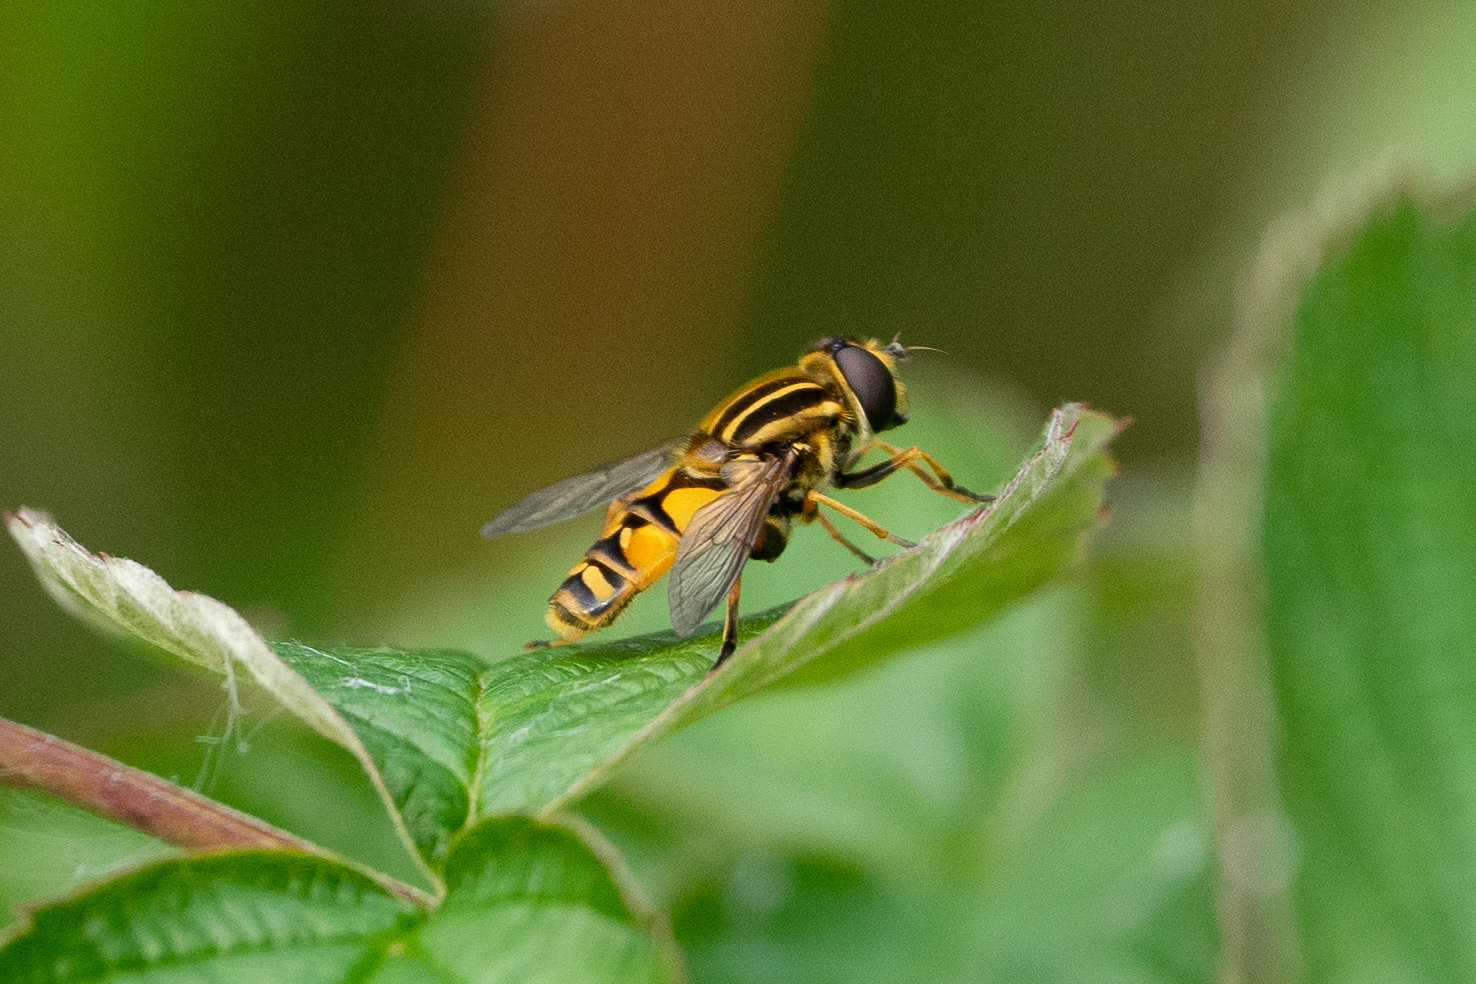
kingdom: Animalia
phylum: Arthropoda
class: Insecta
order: Diptera
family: Syrphidae
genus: Helophilus
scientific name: Helophilus pendulus
